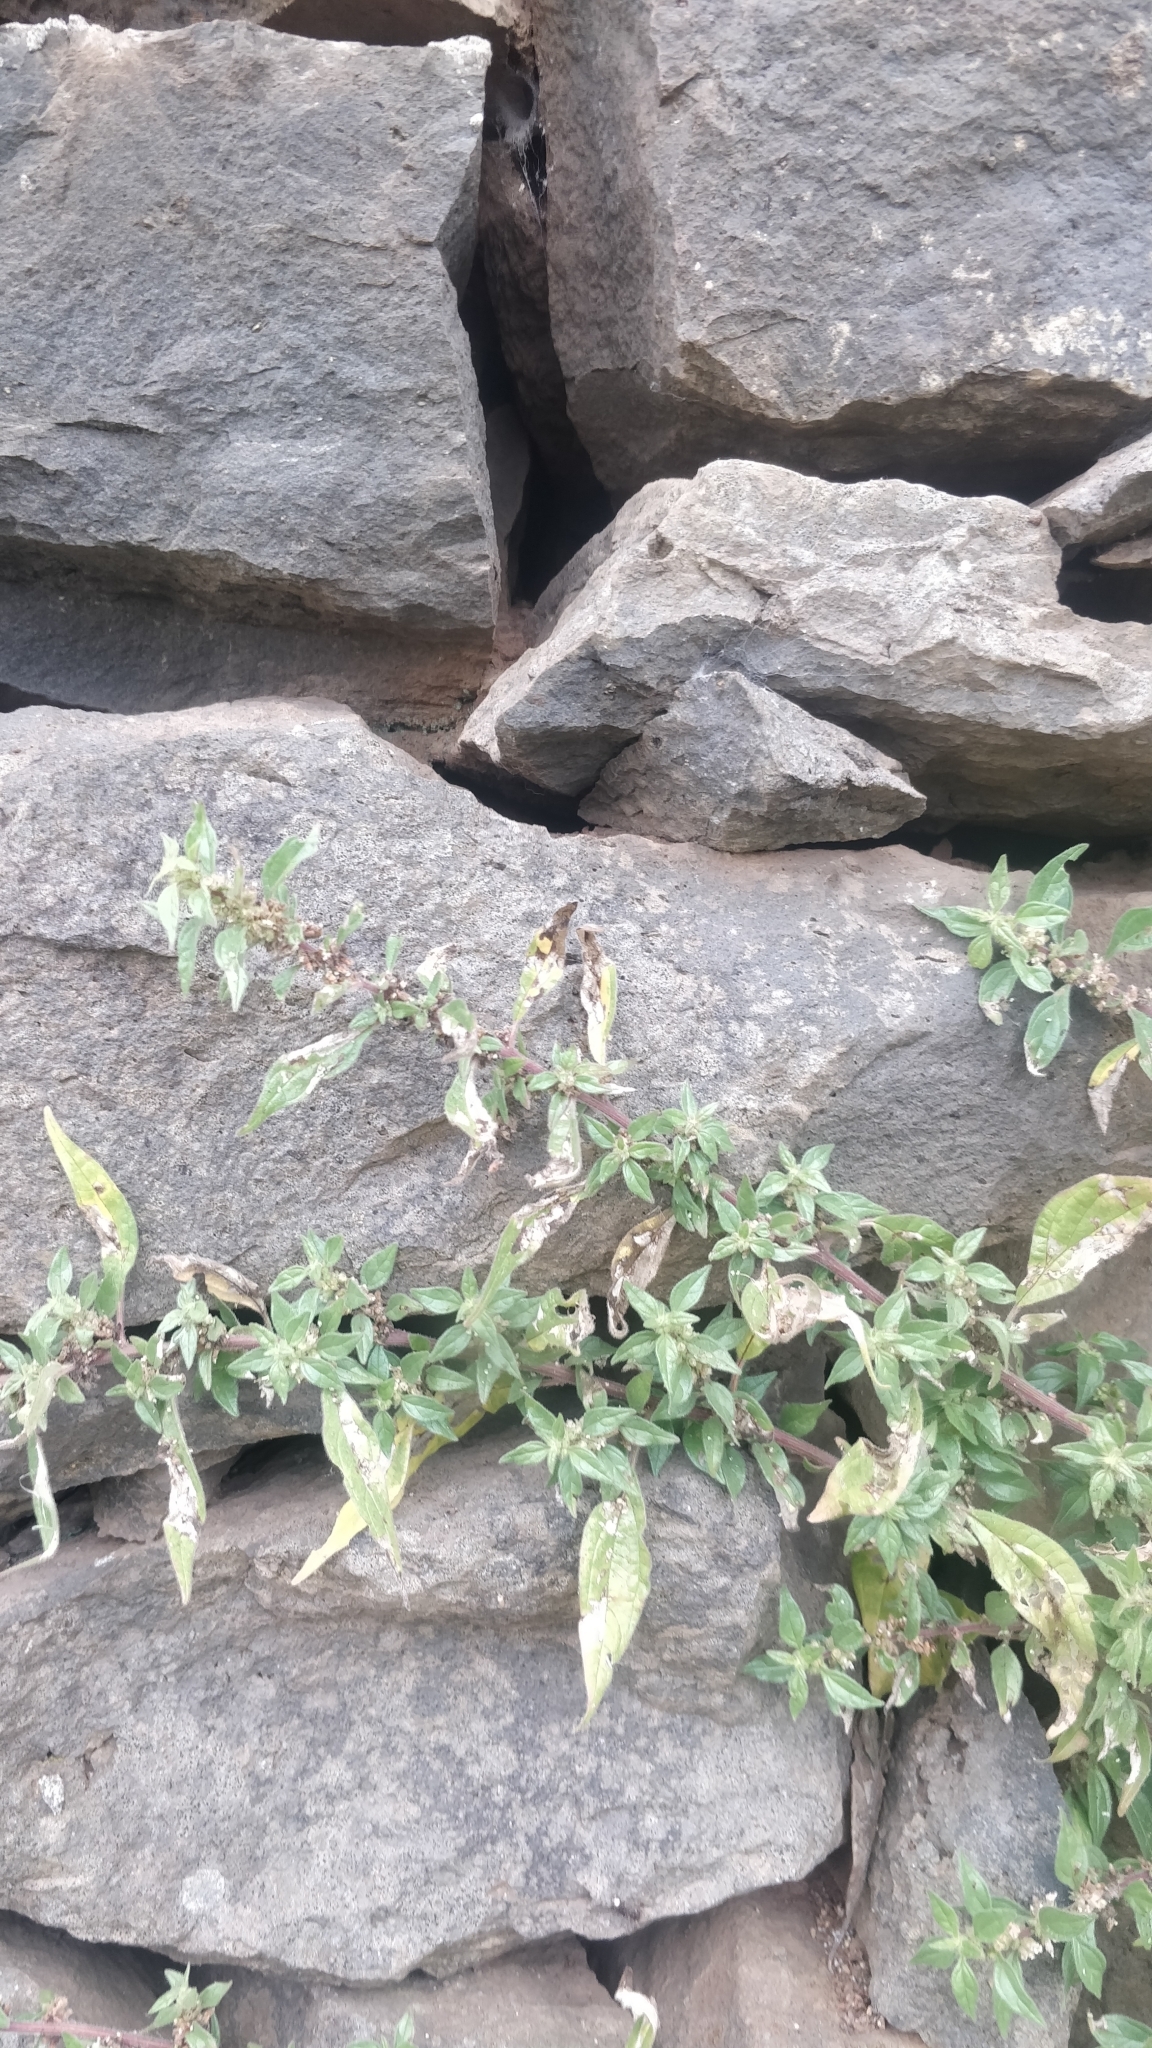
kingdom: Plantae
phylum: Tracheophyta
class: Magnoliopsida
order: Rosales
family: Urticaceae
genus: Parietaria
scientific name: Parietaria judaica
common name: Pellitory-of-the-wall
